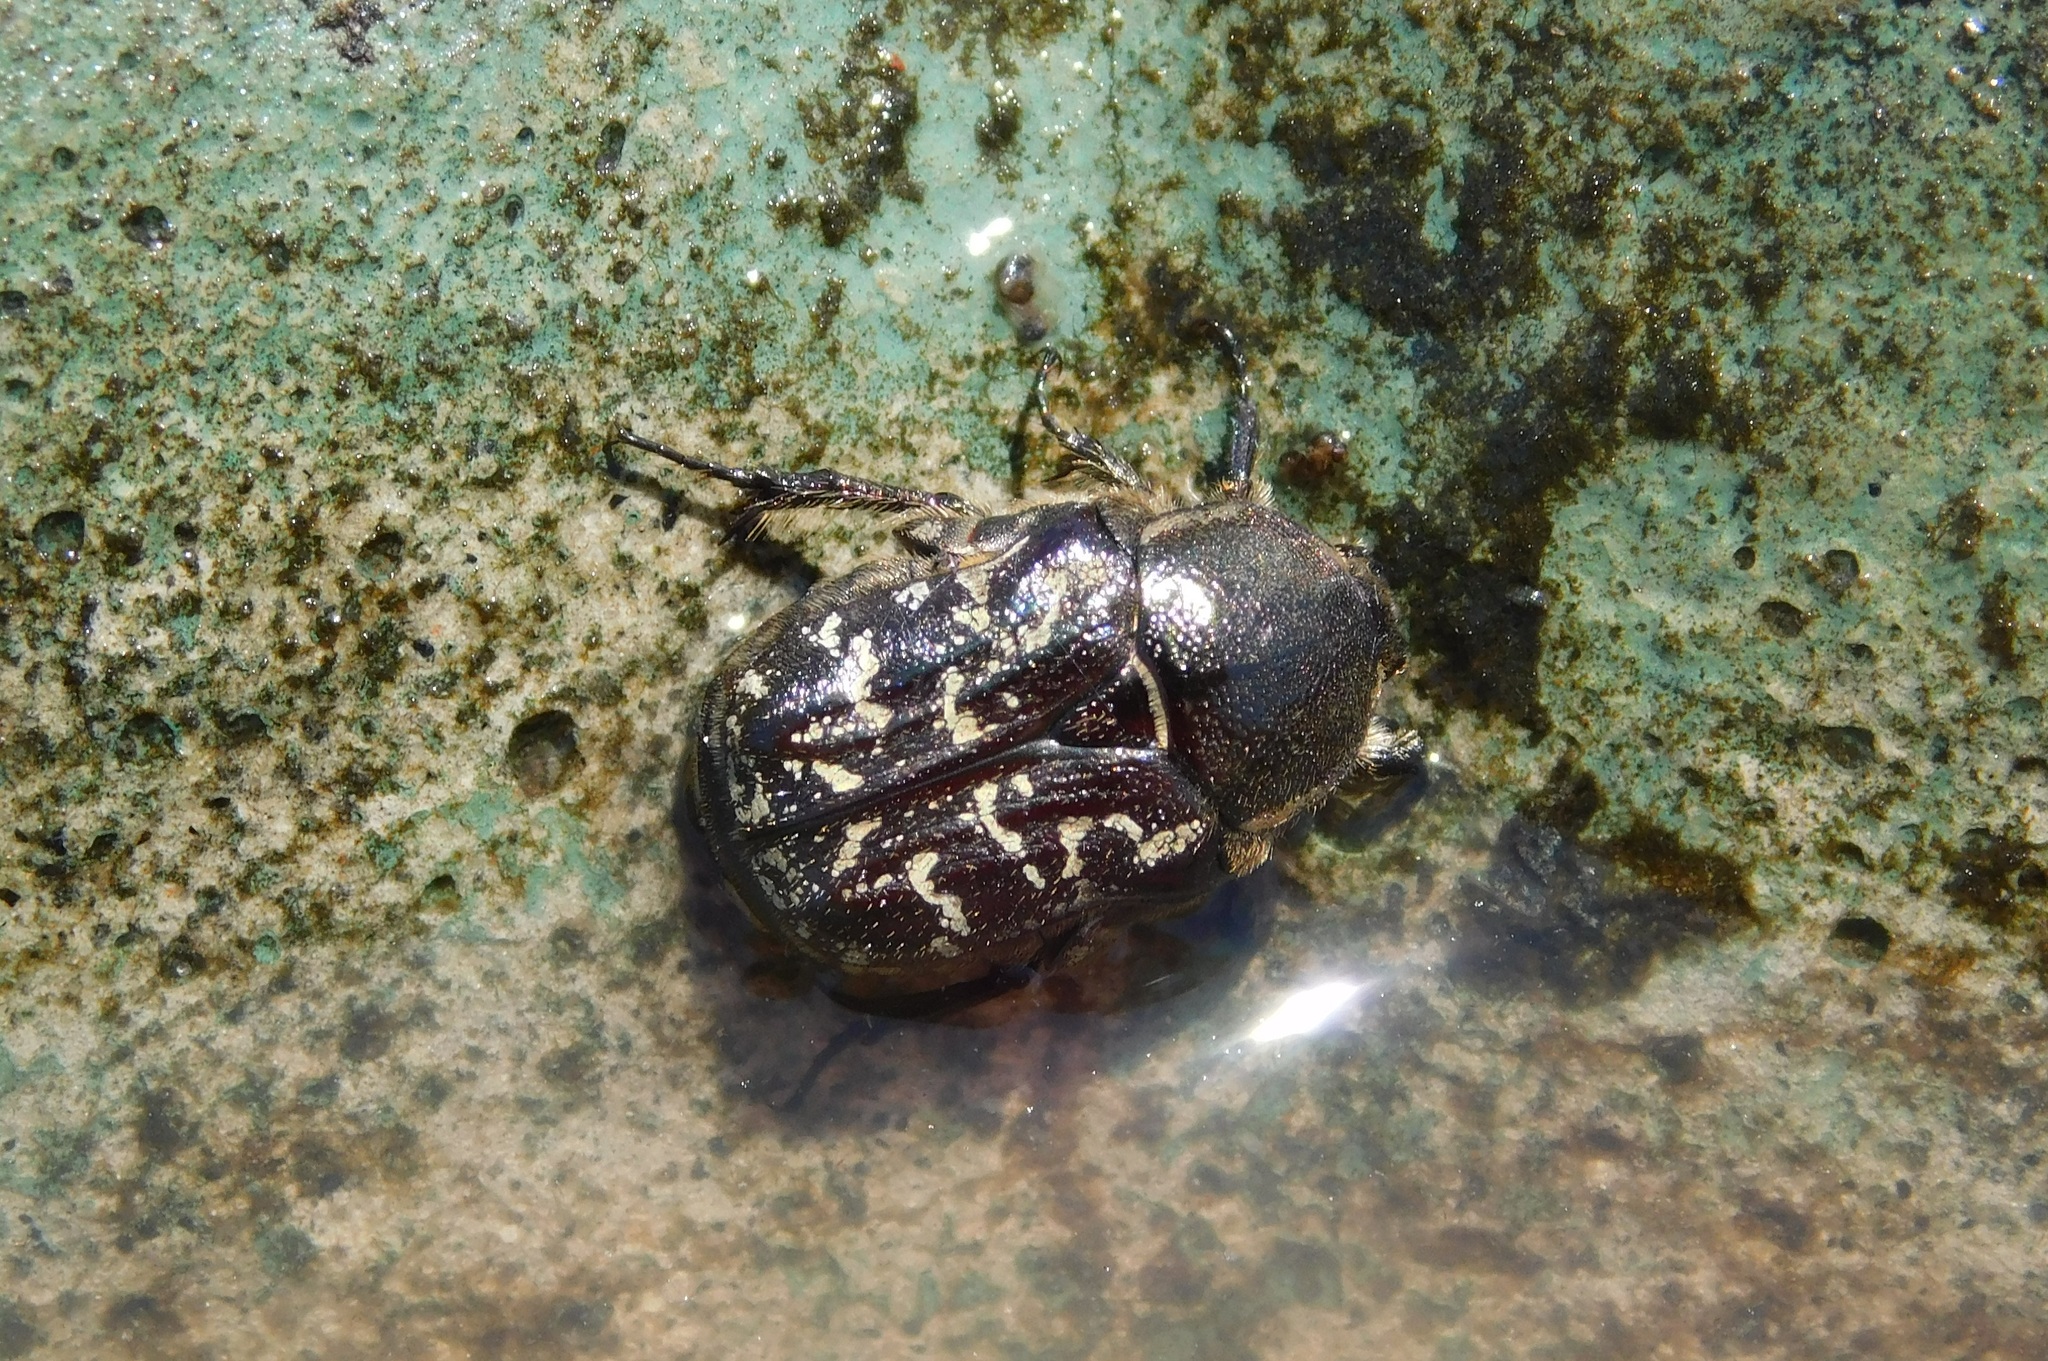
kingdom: Animalia
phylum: Arthropoda
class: Insecta
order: Coleoptera
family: Scarabaeidae
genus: Euphoria
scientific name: Euphoria sepulcralis
